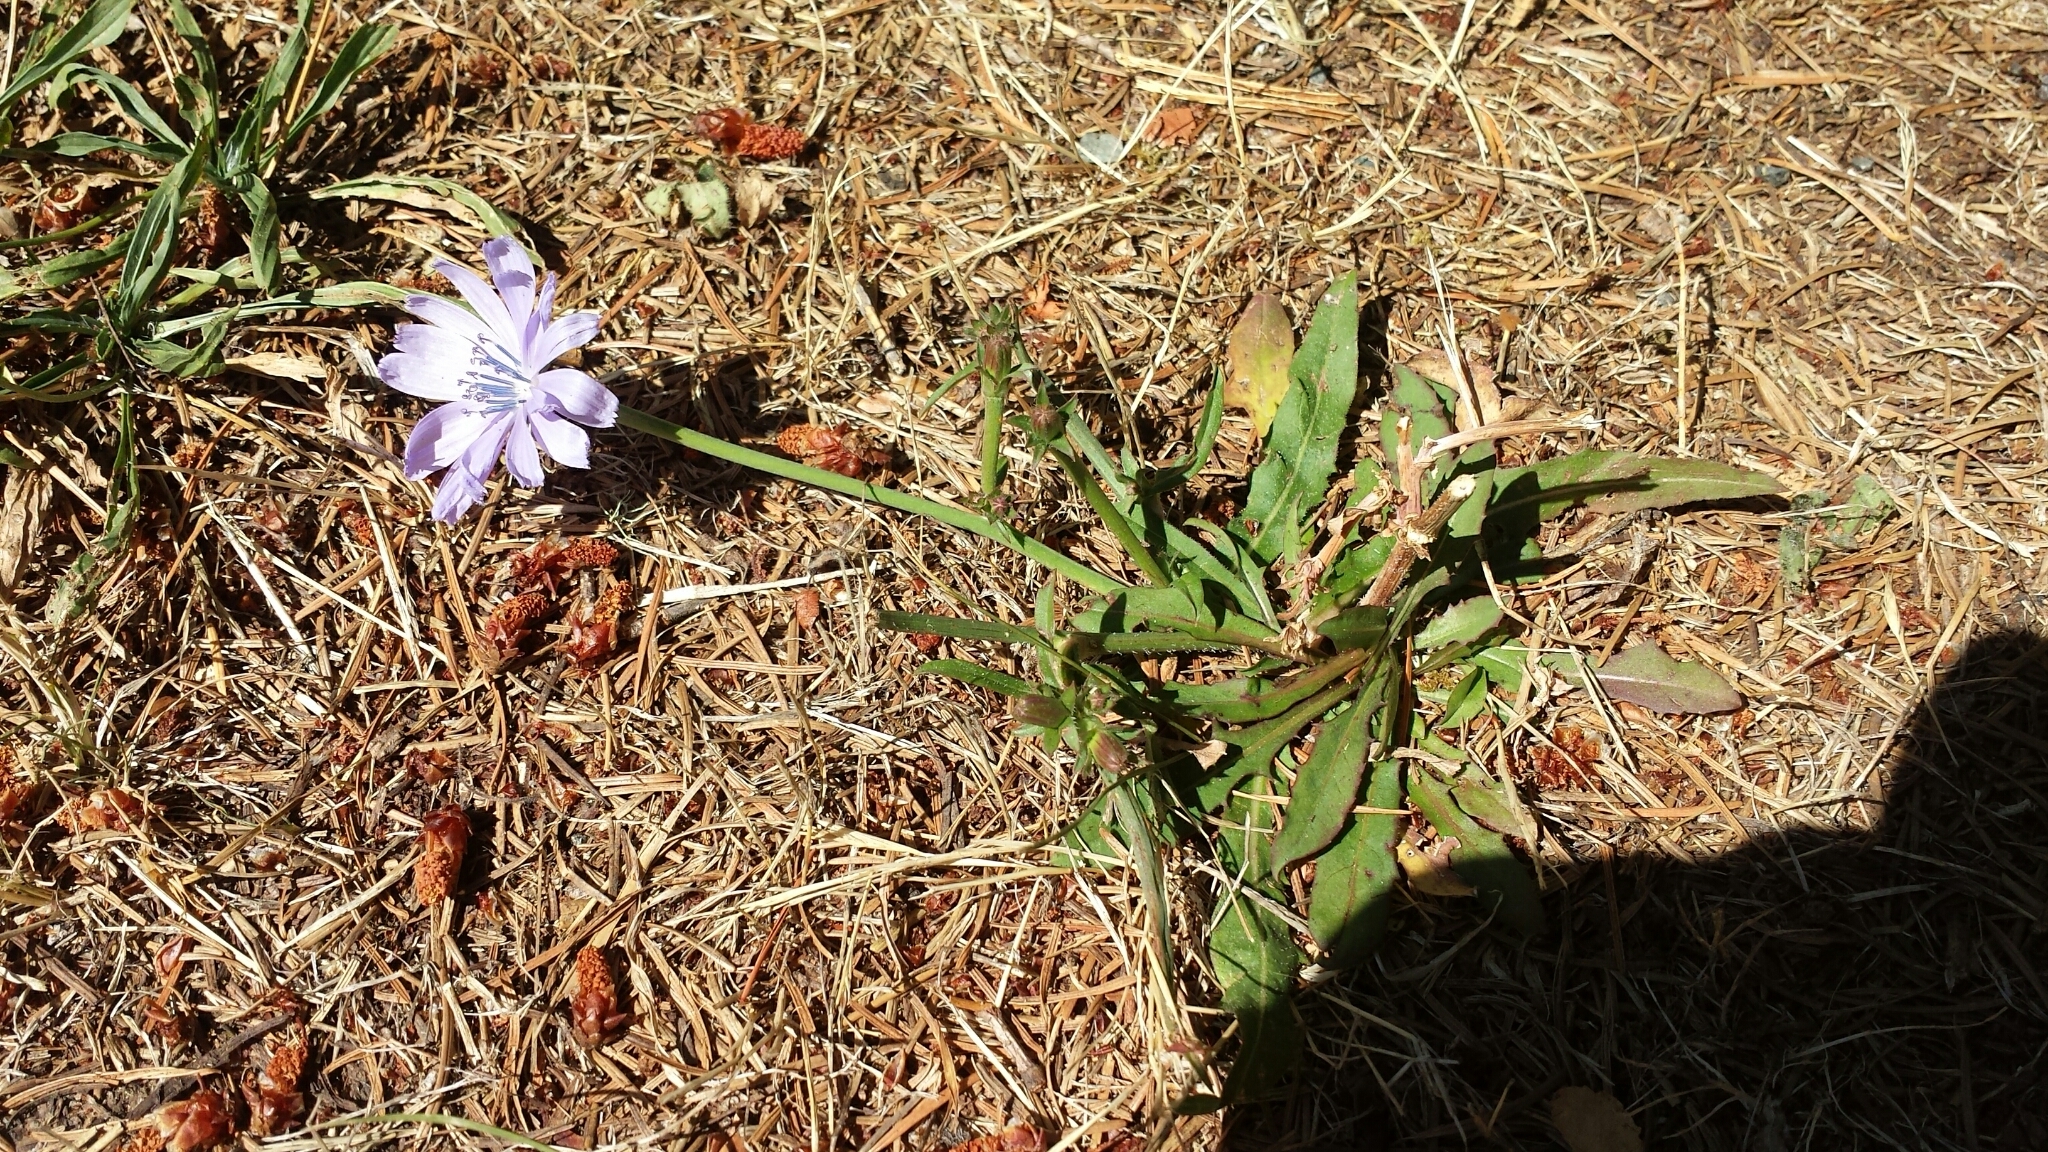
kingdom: Plantae
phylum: Tracheophyta
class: Magnoliopsida
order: Asterales
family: Asteraceae
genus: Cichorium
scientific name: Cichorium intybus
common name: Chicory
